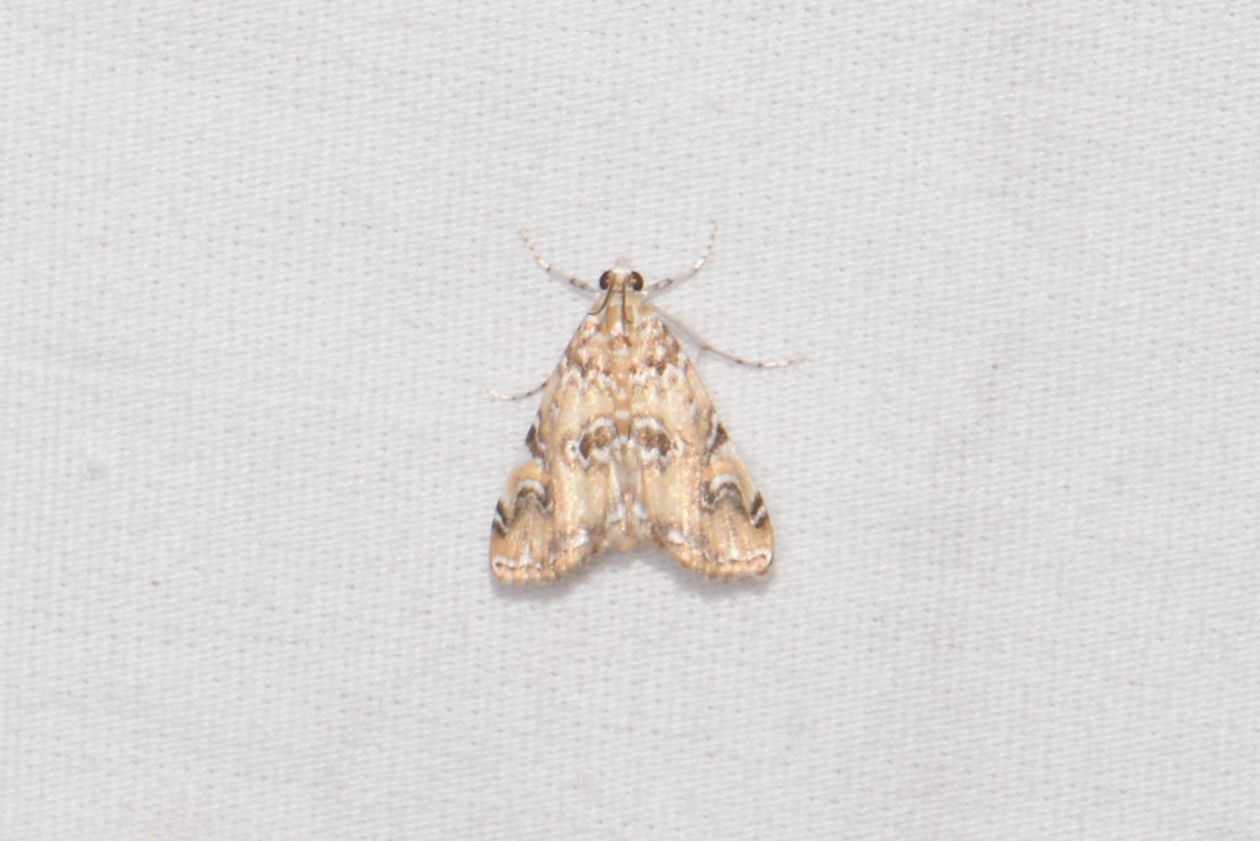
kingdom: Animalia
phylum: Arthropoda
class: Insecta
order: Lepidoptera
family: Crambidae
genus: Elophila
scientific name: Elophila gyralis
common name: Waterlily borer moth
